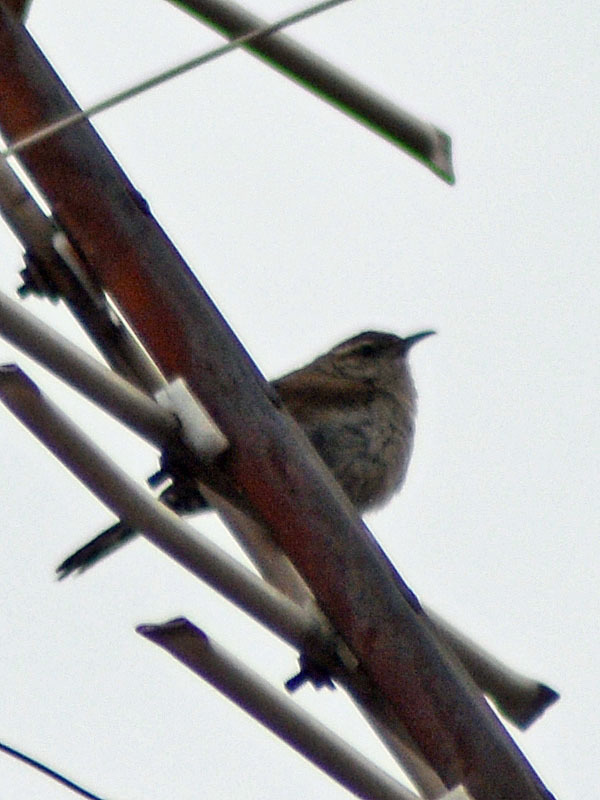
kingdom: Animalia
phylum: Chordata
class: Aves
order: Passeriformes
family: Troglodytidae
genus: Thryomanes
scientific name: Thryomanes bewickii
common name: Bewick's wren
